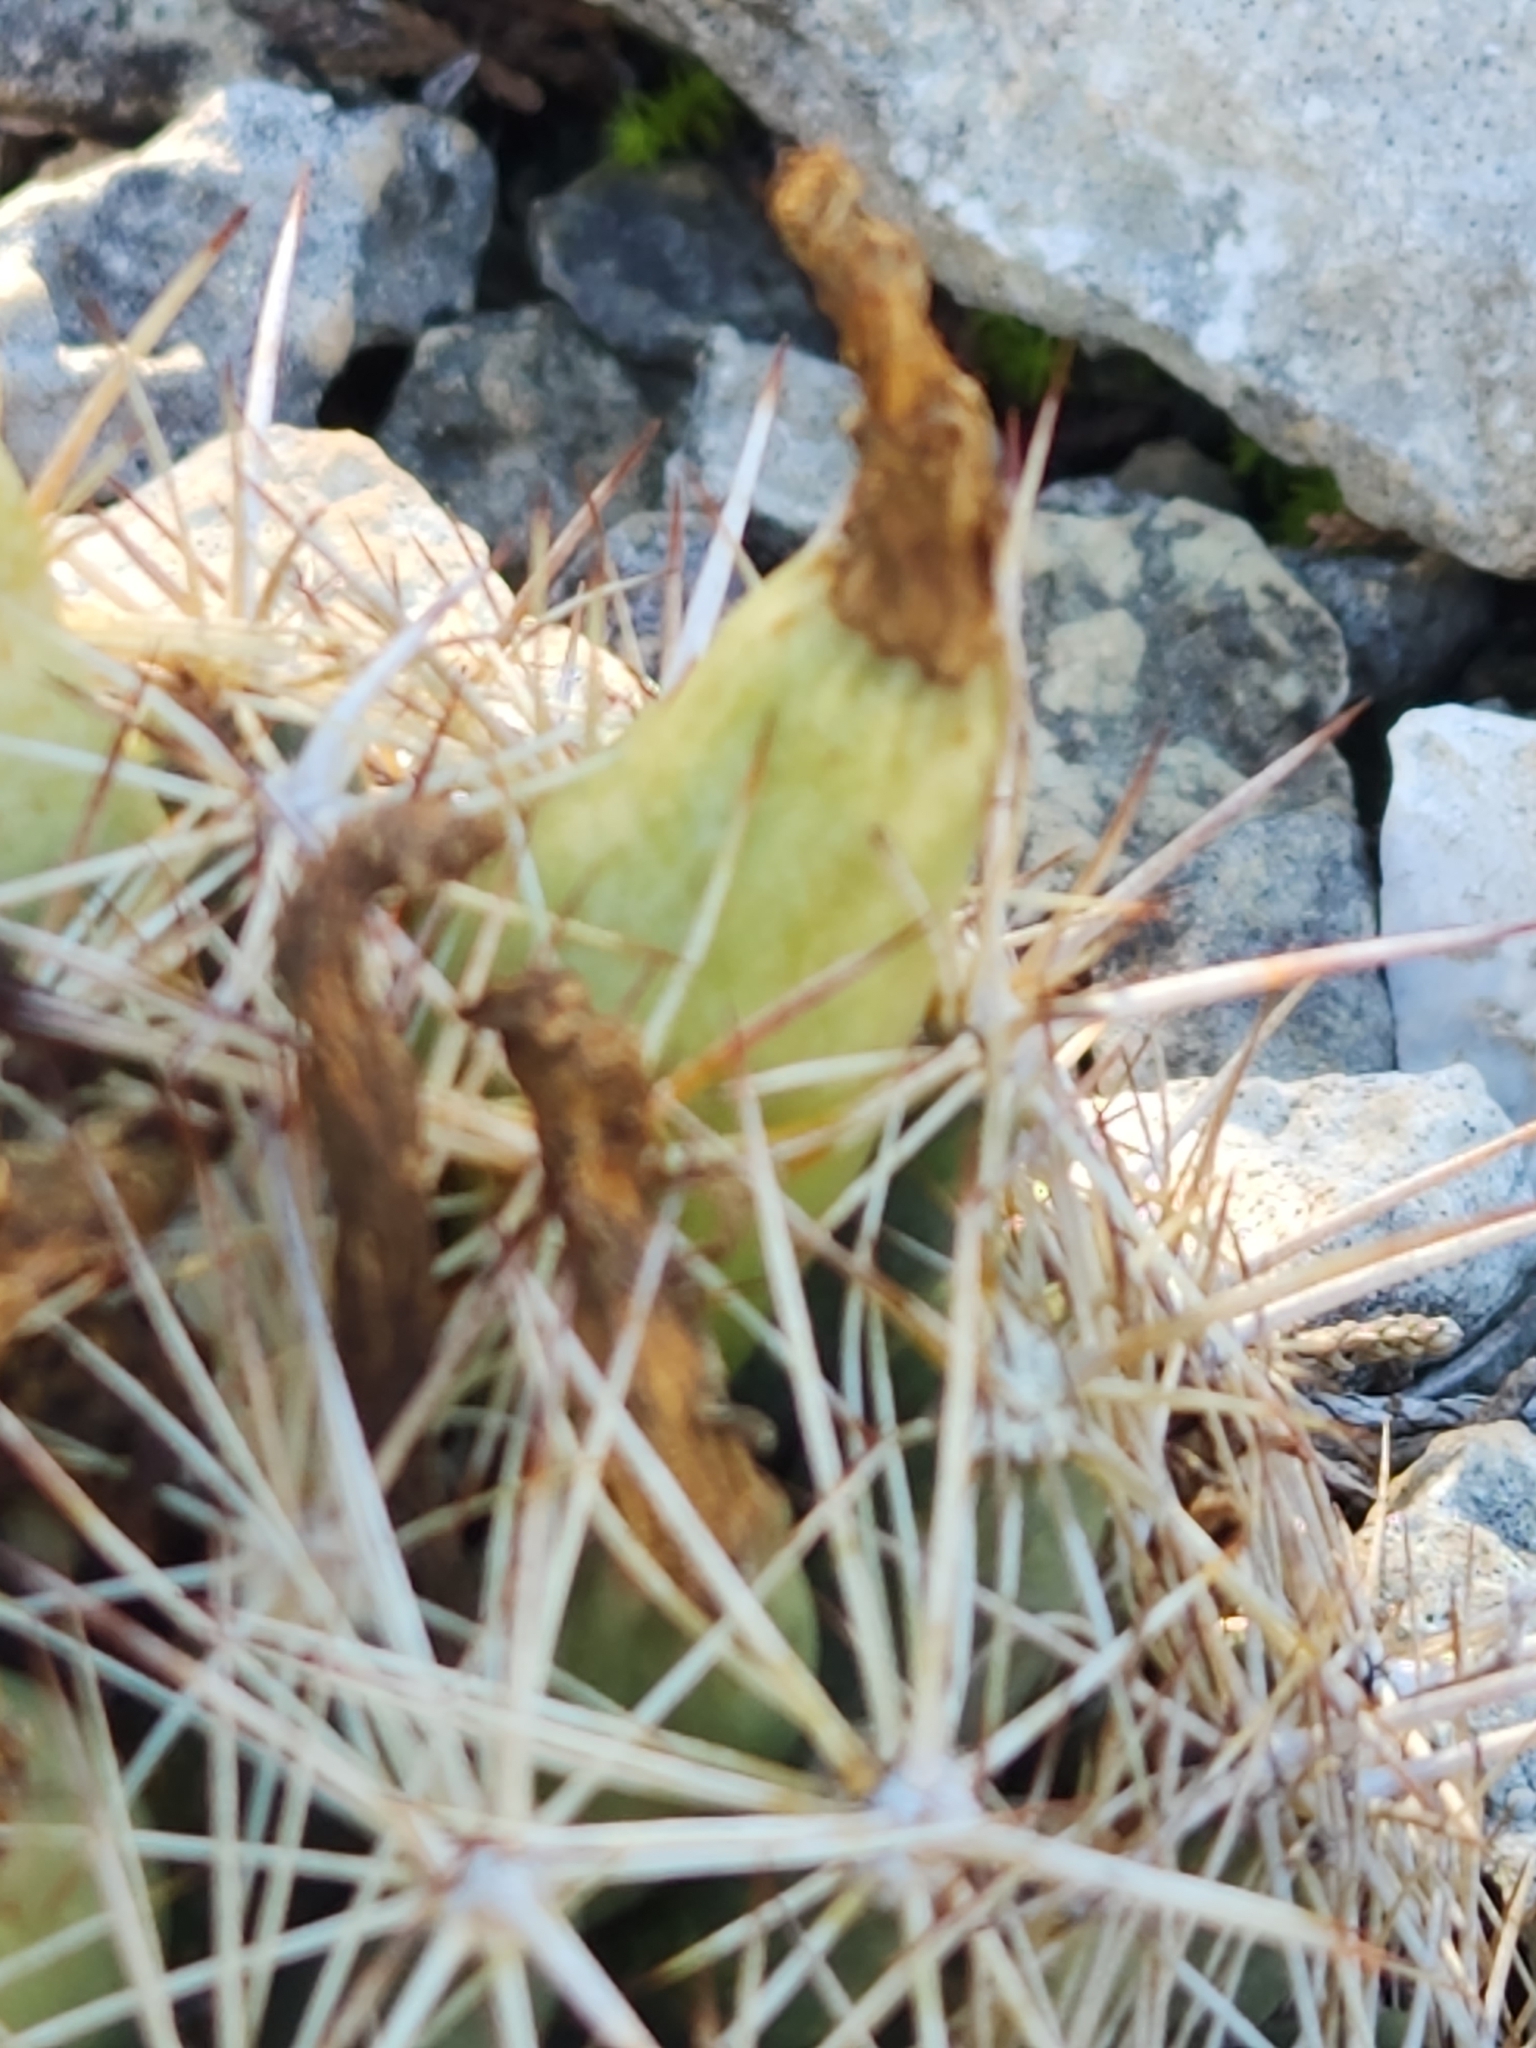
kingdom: Plantae
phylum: Tracheophyta
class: Magnoliopsida
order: Caryophyllales
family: Cactaceae
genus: Coryphantha
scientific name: Coryphantha sulcata
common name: Finger cactus
